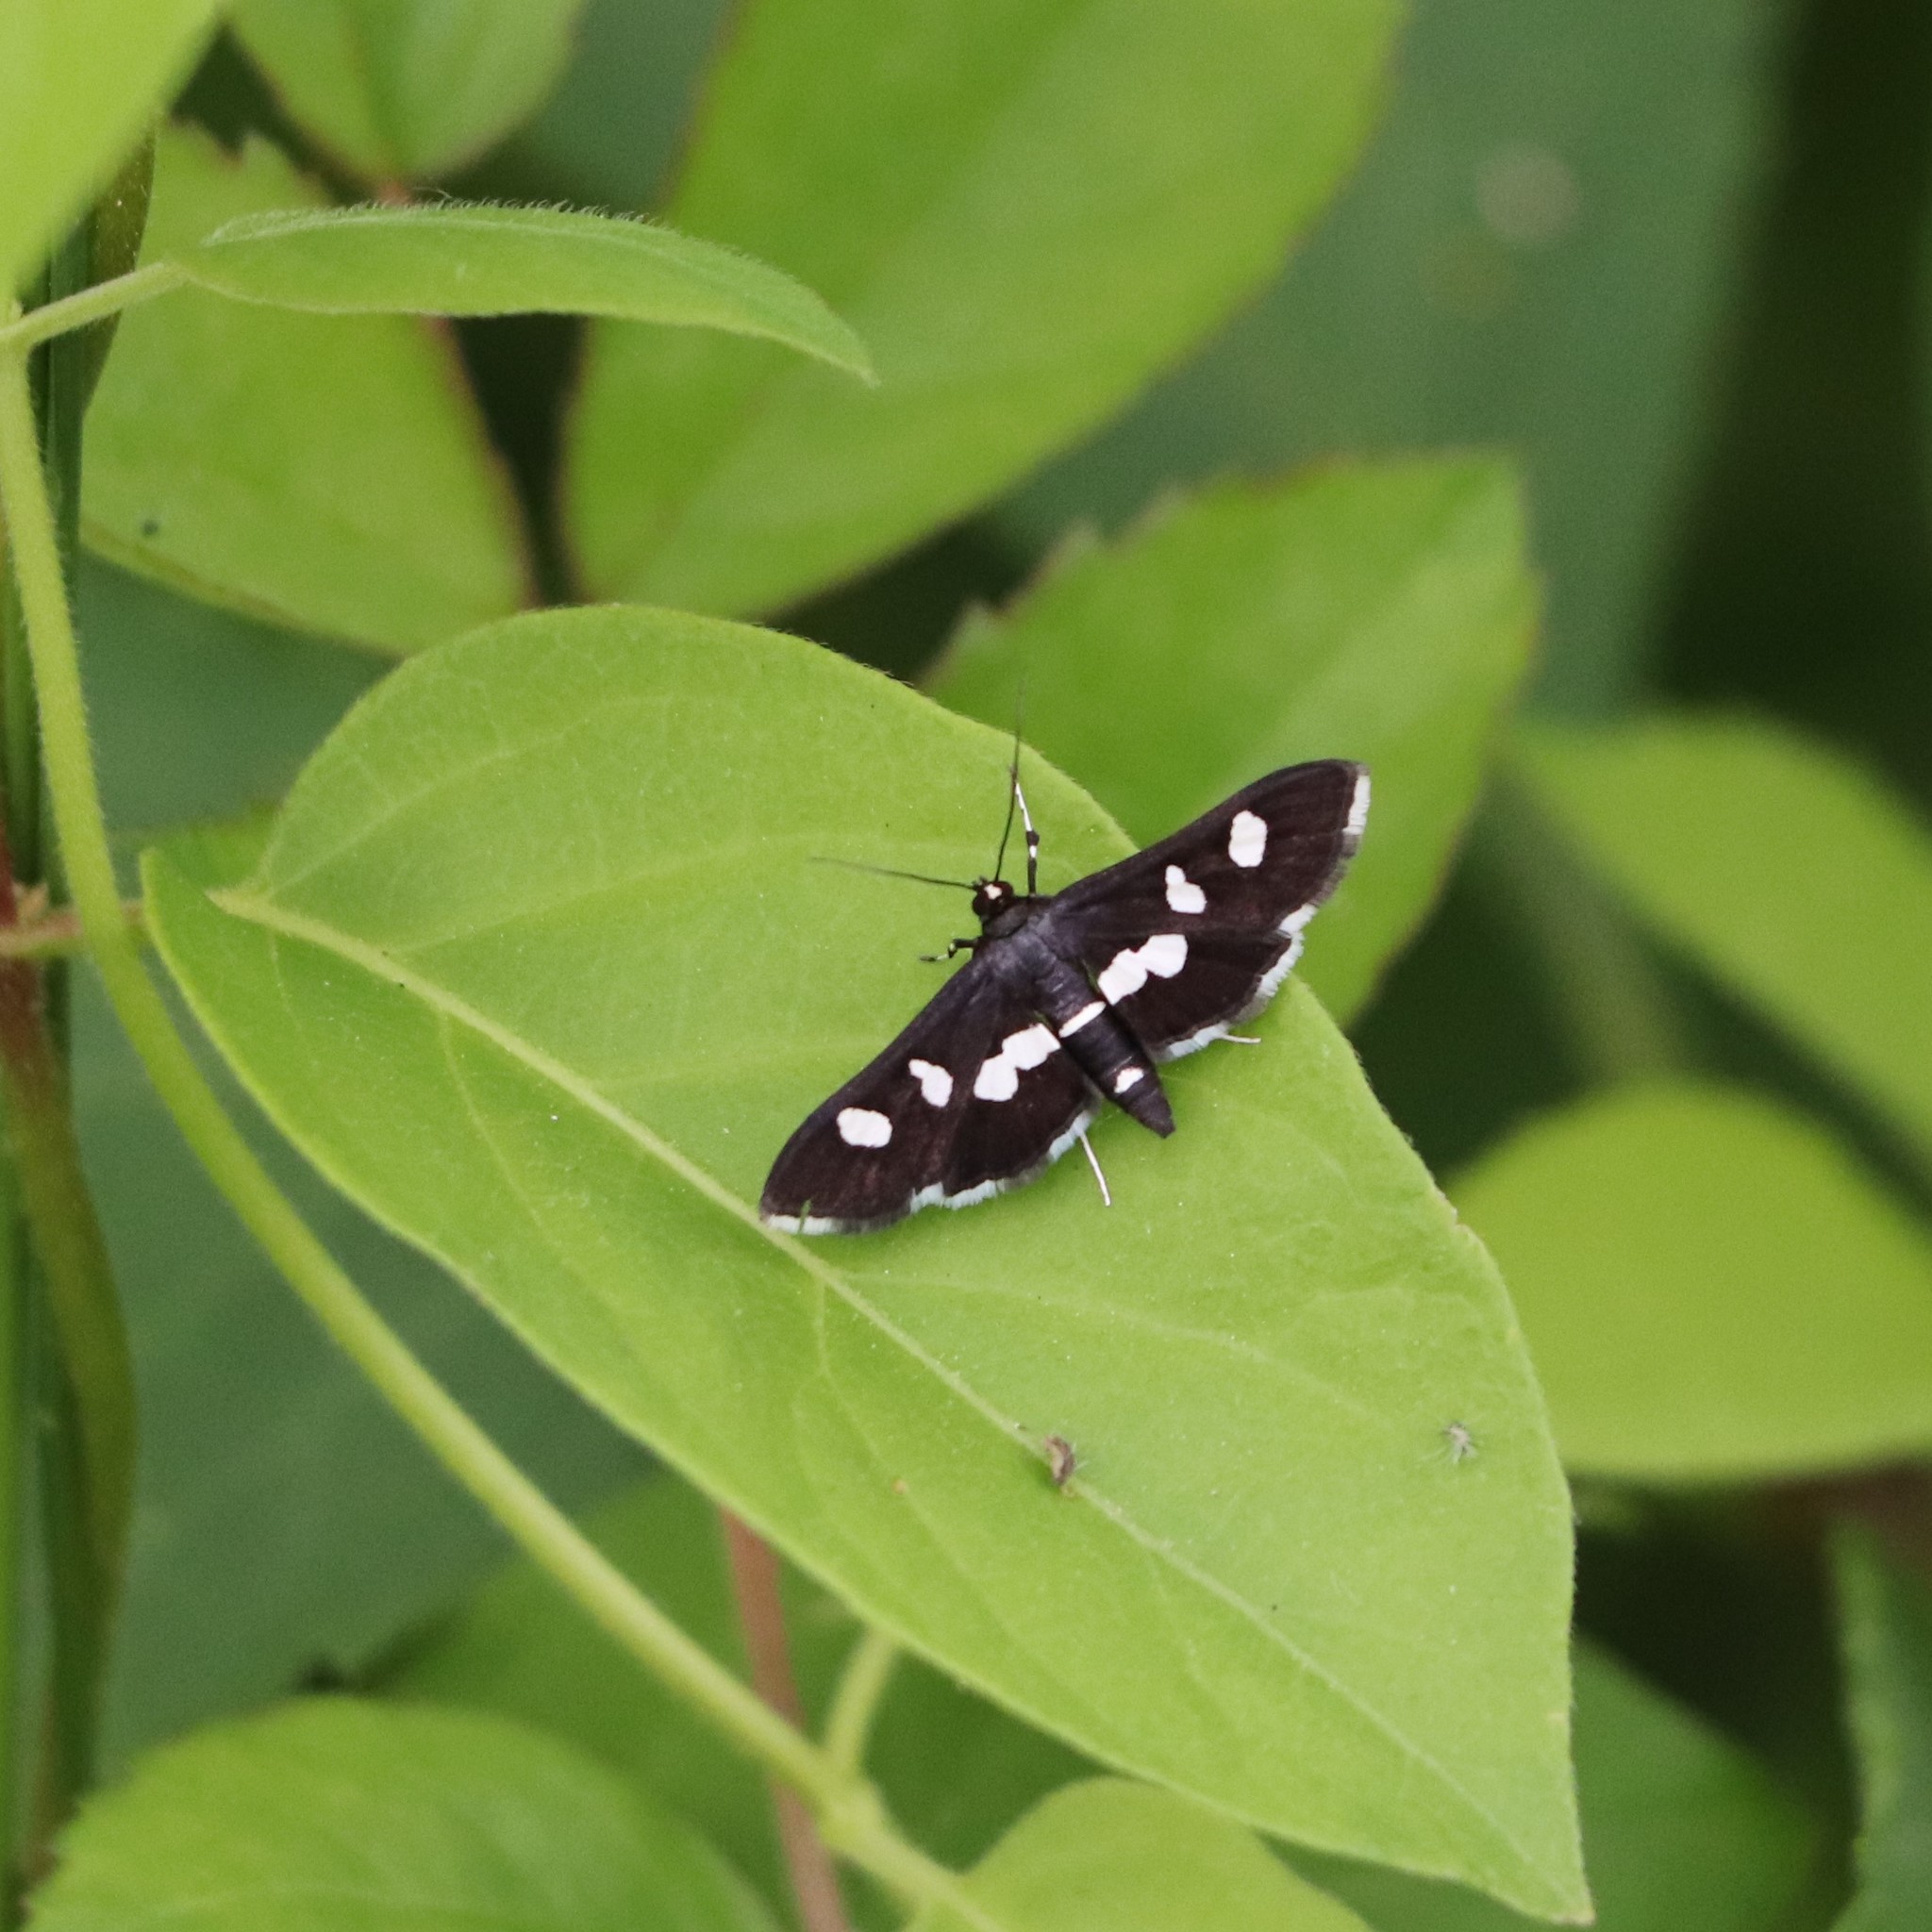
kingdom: Animalia
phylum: Arthropoda
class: Insecta
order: Lepidoptera
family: Crambidae
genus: Desmia
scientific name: Desmia
